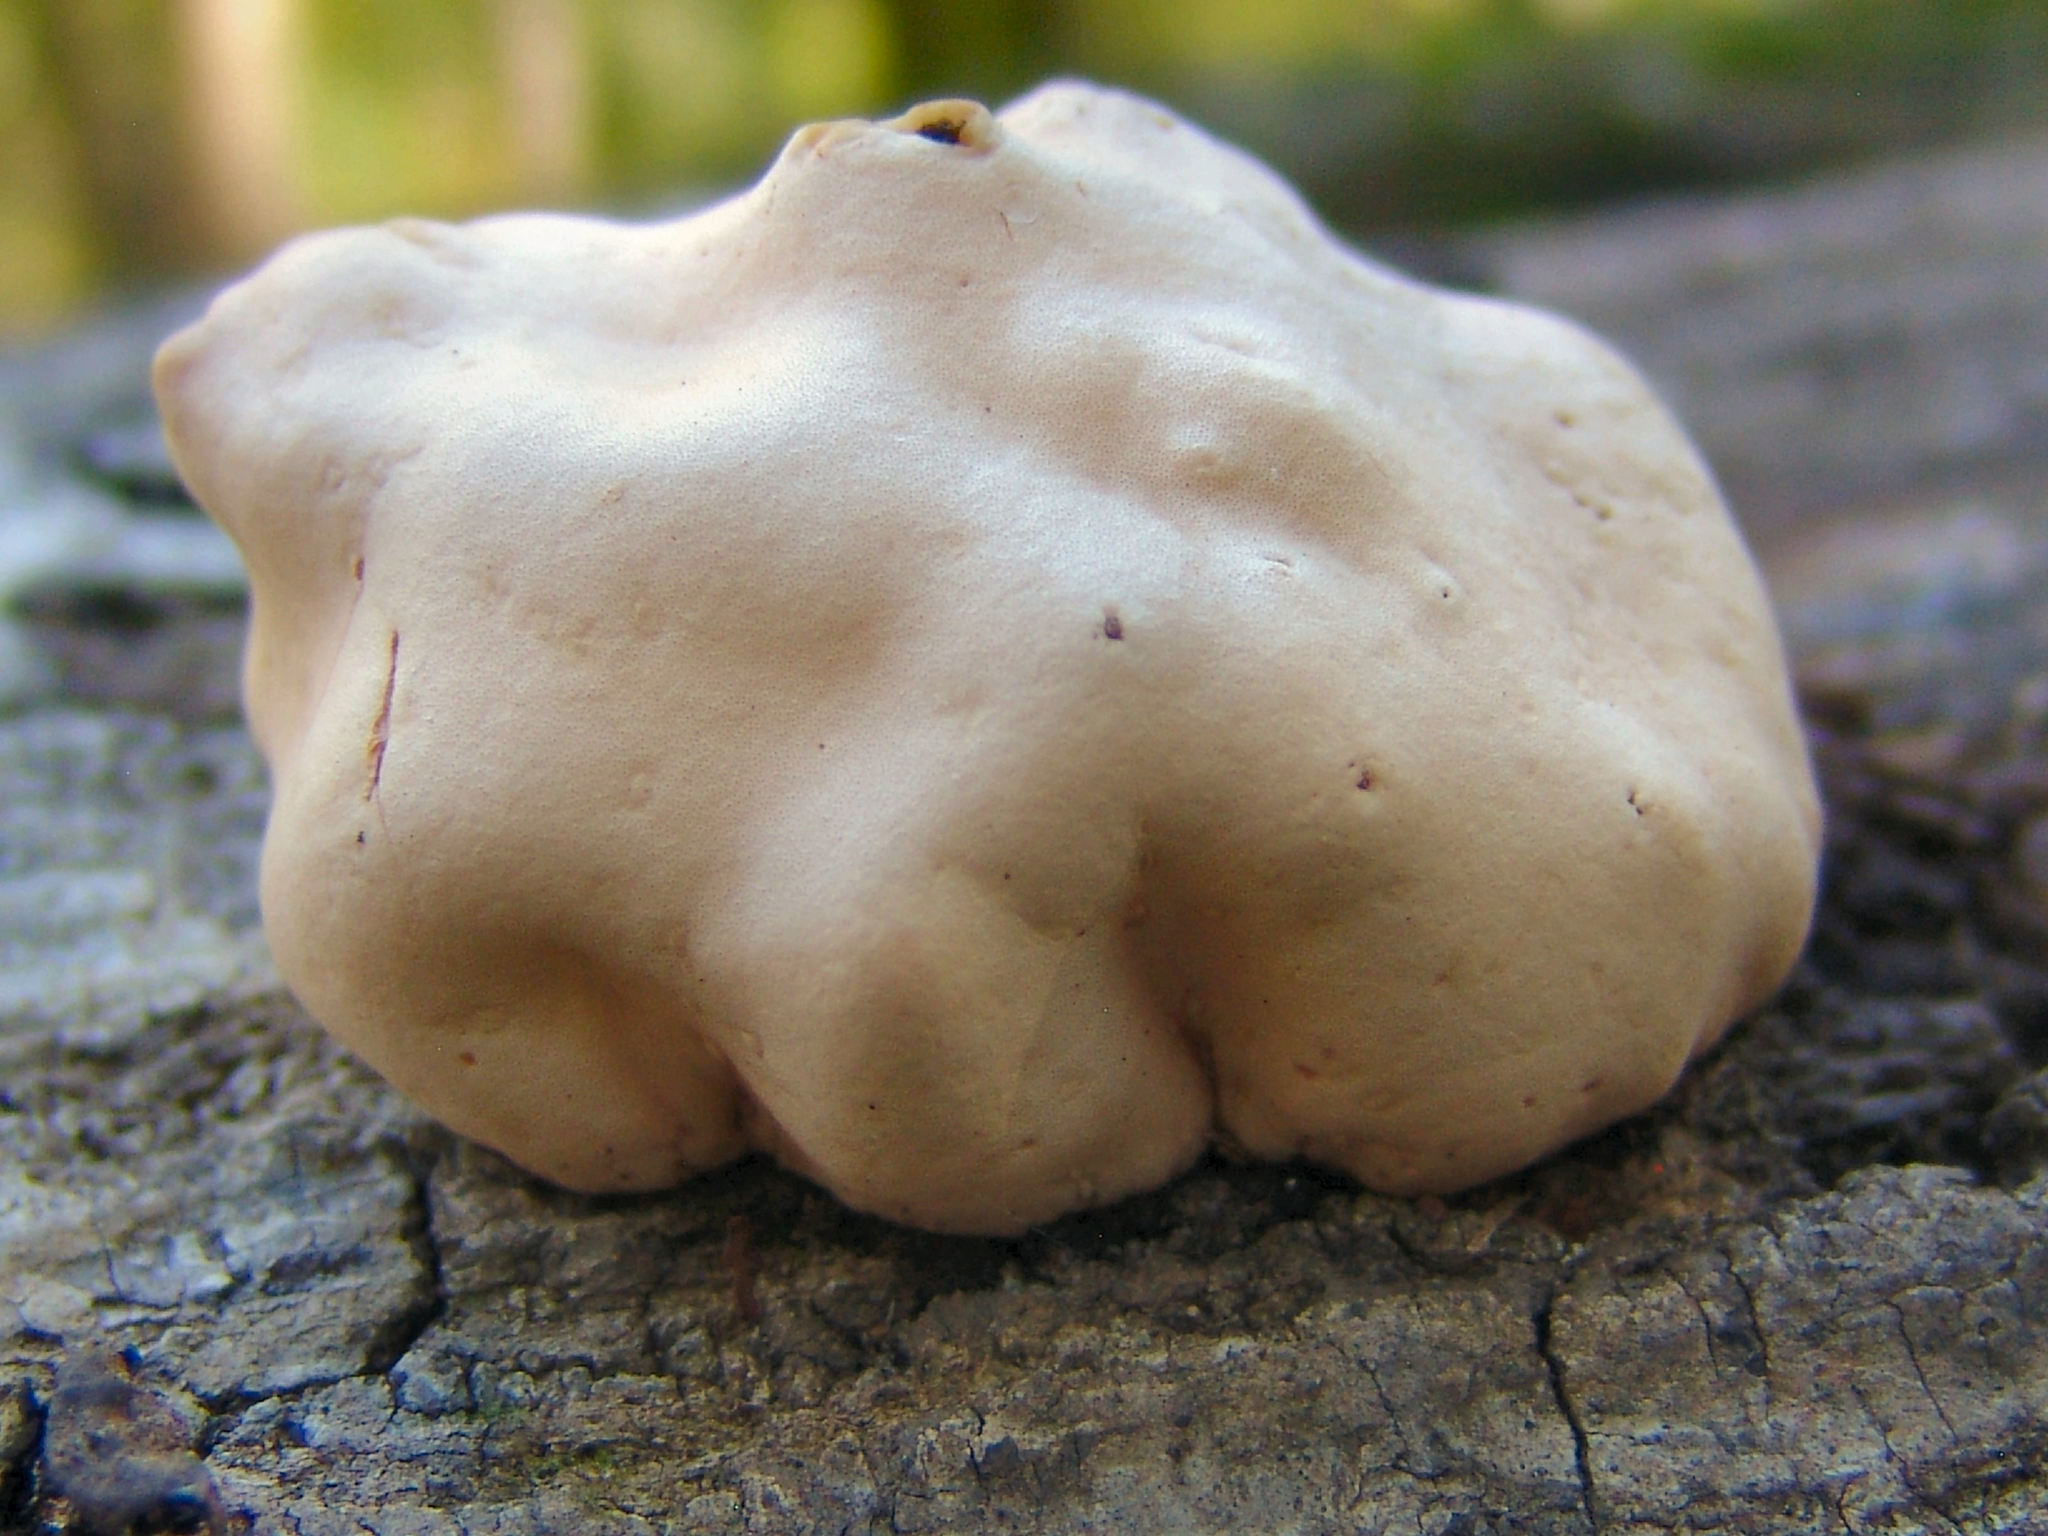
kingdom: Fungi
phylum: Ascomycota
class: Sordariomycetes
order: Hypocreales
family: Hypocreaceae
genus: Trichoderma
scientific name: Trichoderma peltatum
